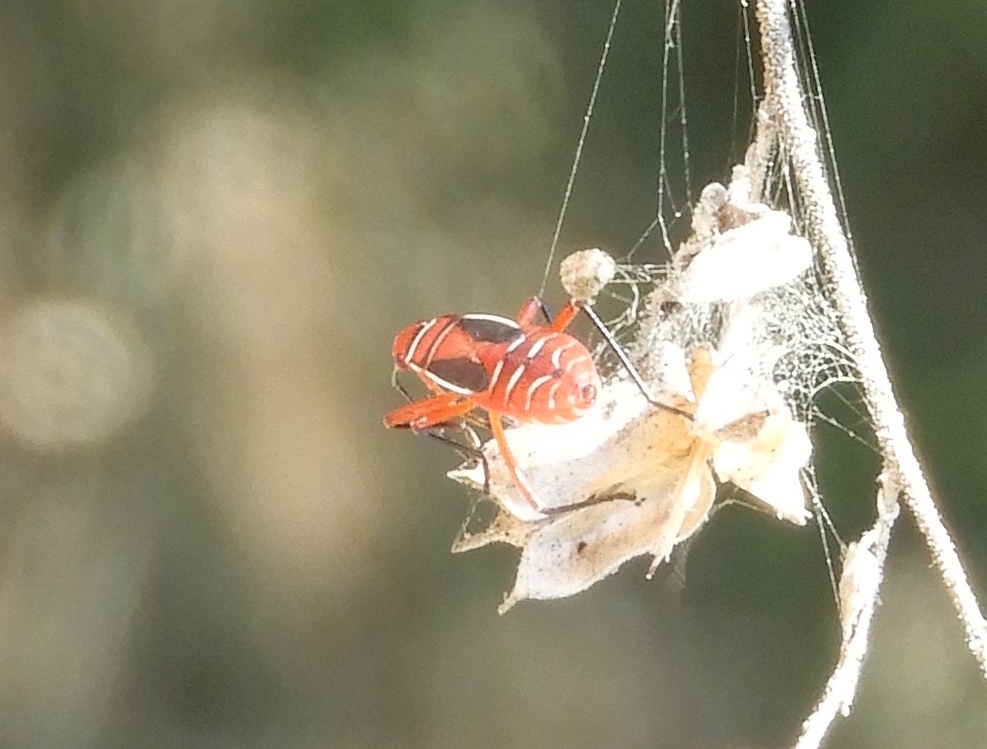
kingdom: Animalia
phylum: Arthropoda
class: Insecta
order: Hemiptera
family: Pyrrhocoridae
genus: Dysdercus
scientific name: Dysdercus
